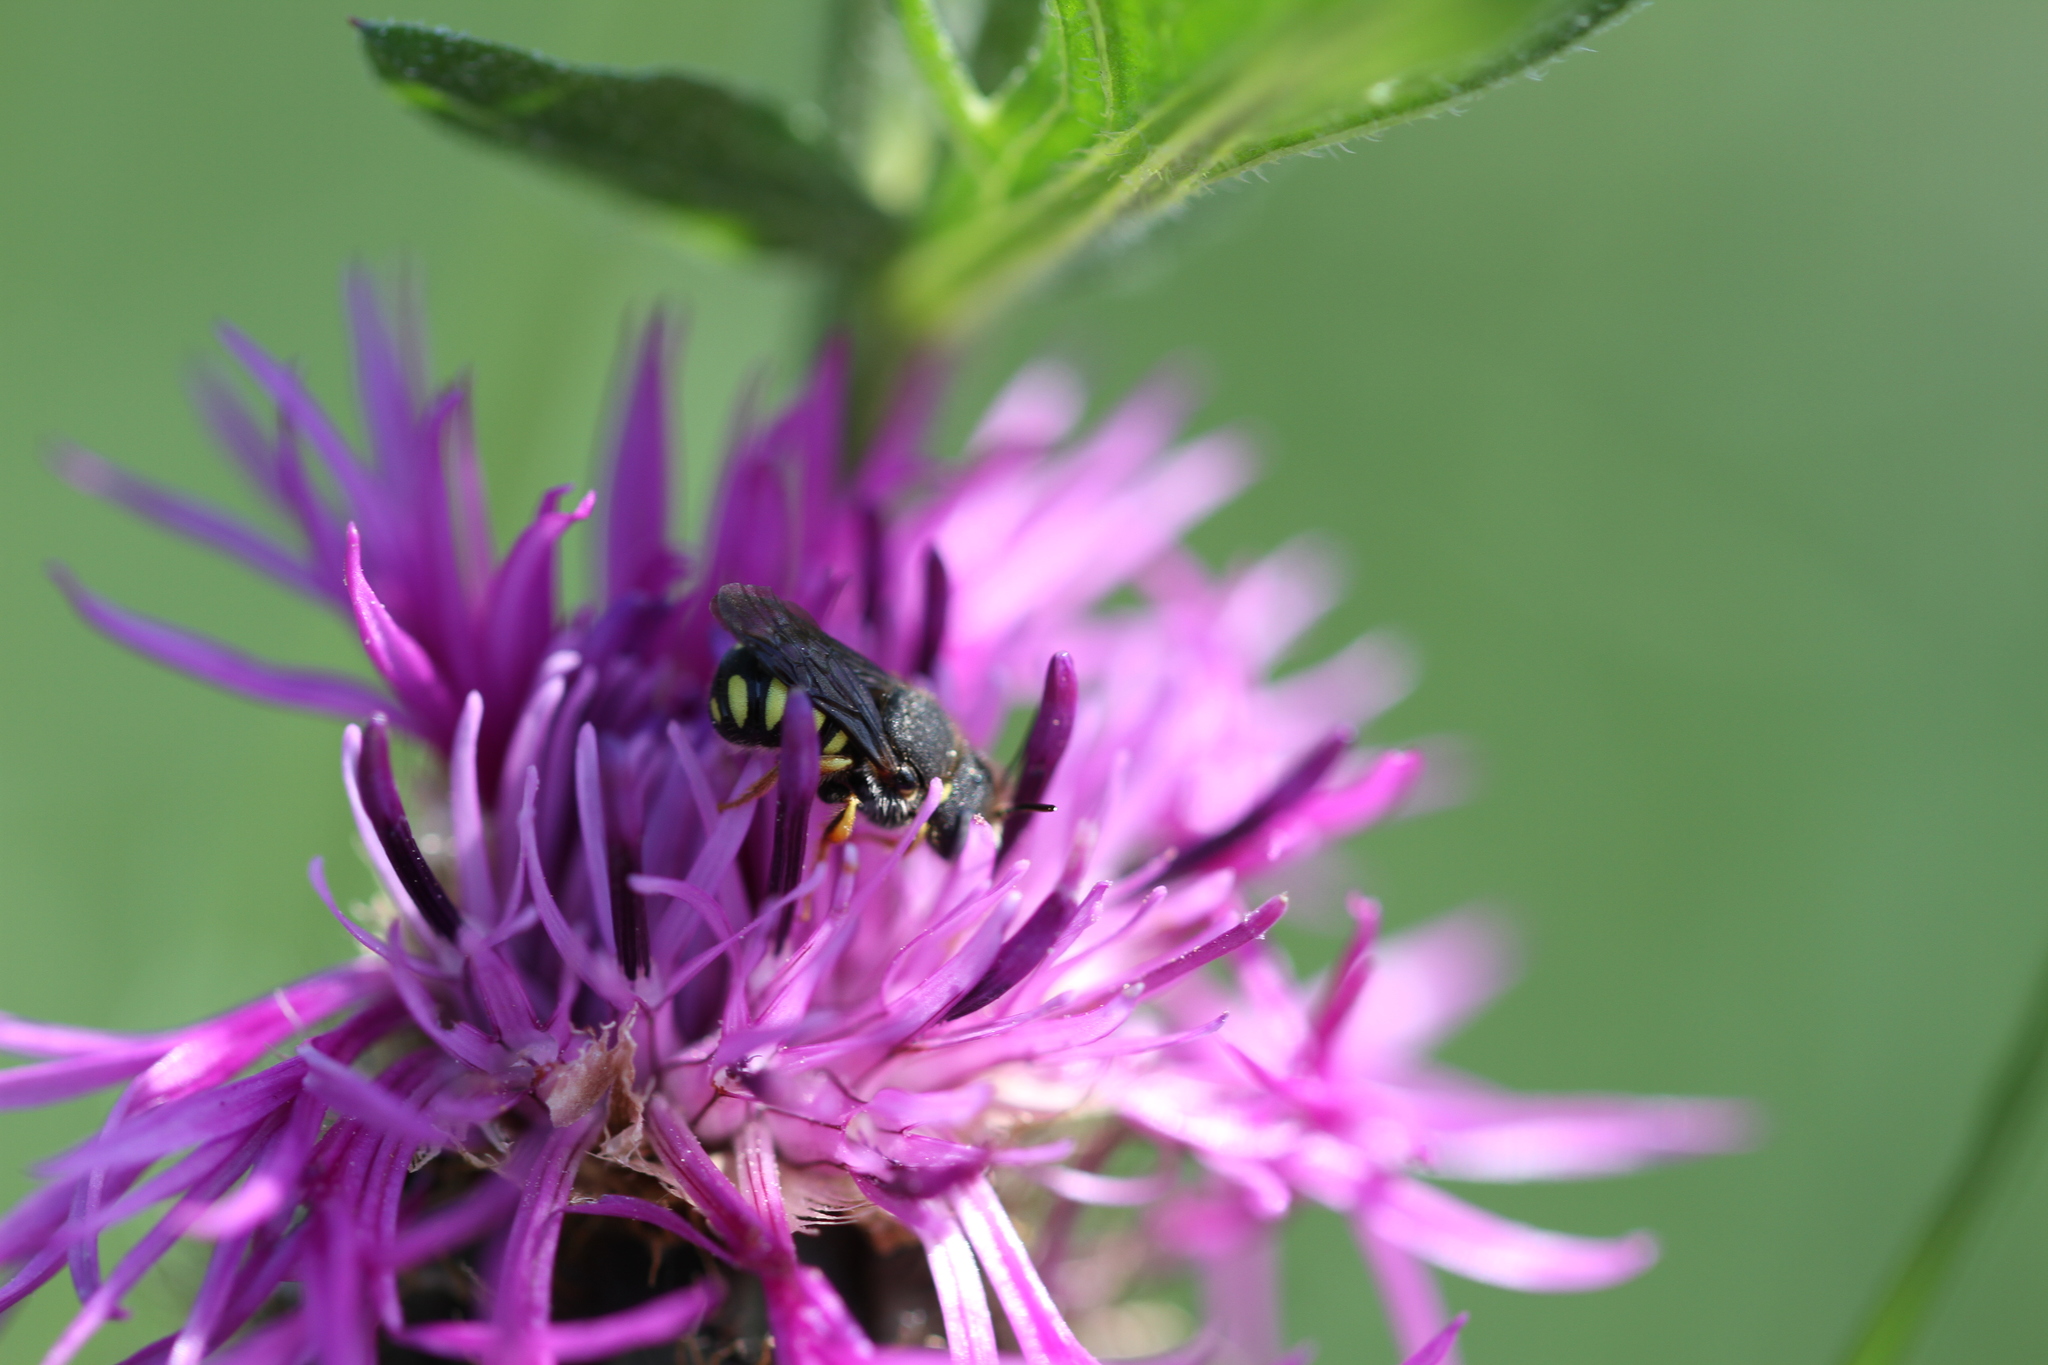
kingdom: Animalia
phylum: Arthropoda
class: Insecta
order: Hymenoptera
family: Megachilidae
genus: Pseudoanthidium
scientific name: Pseudoanthidium nanum
